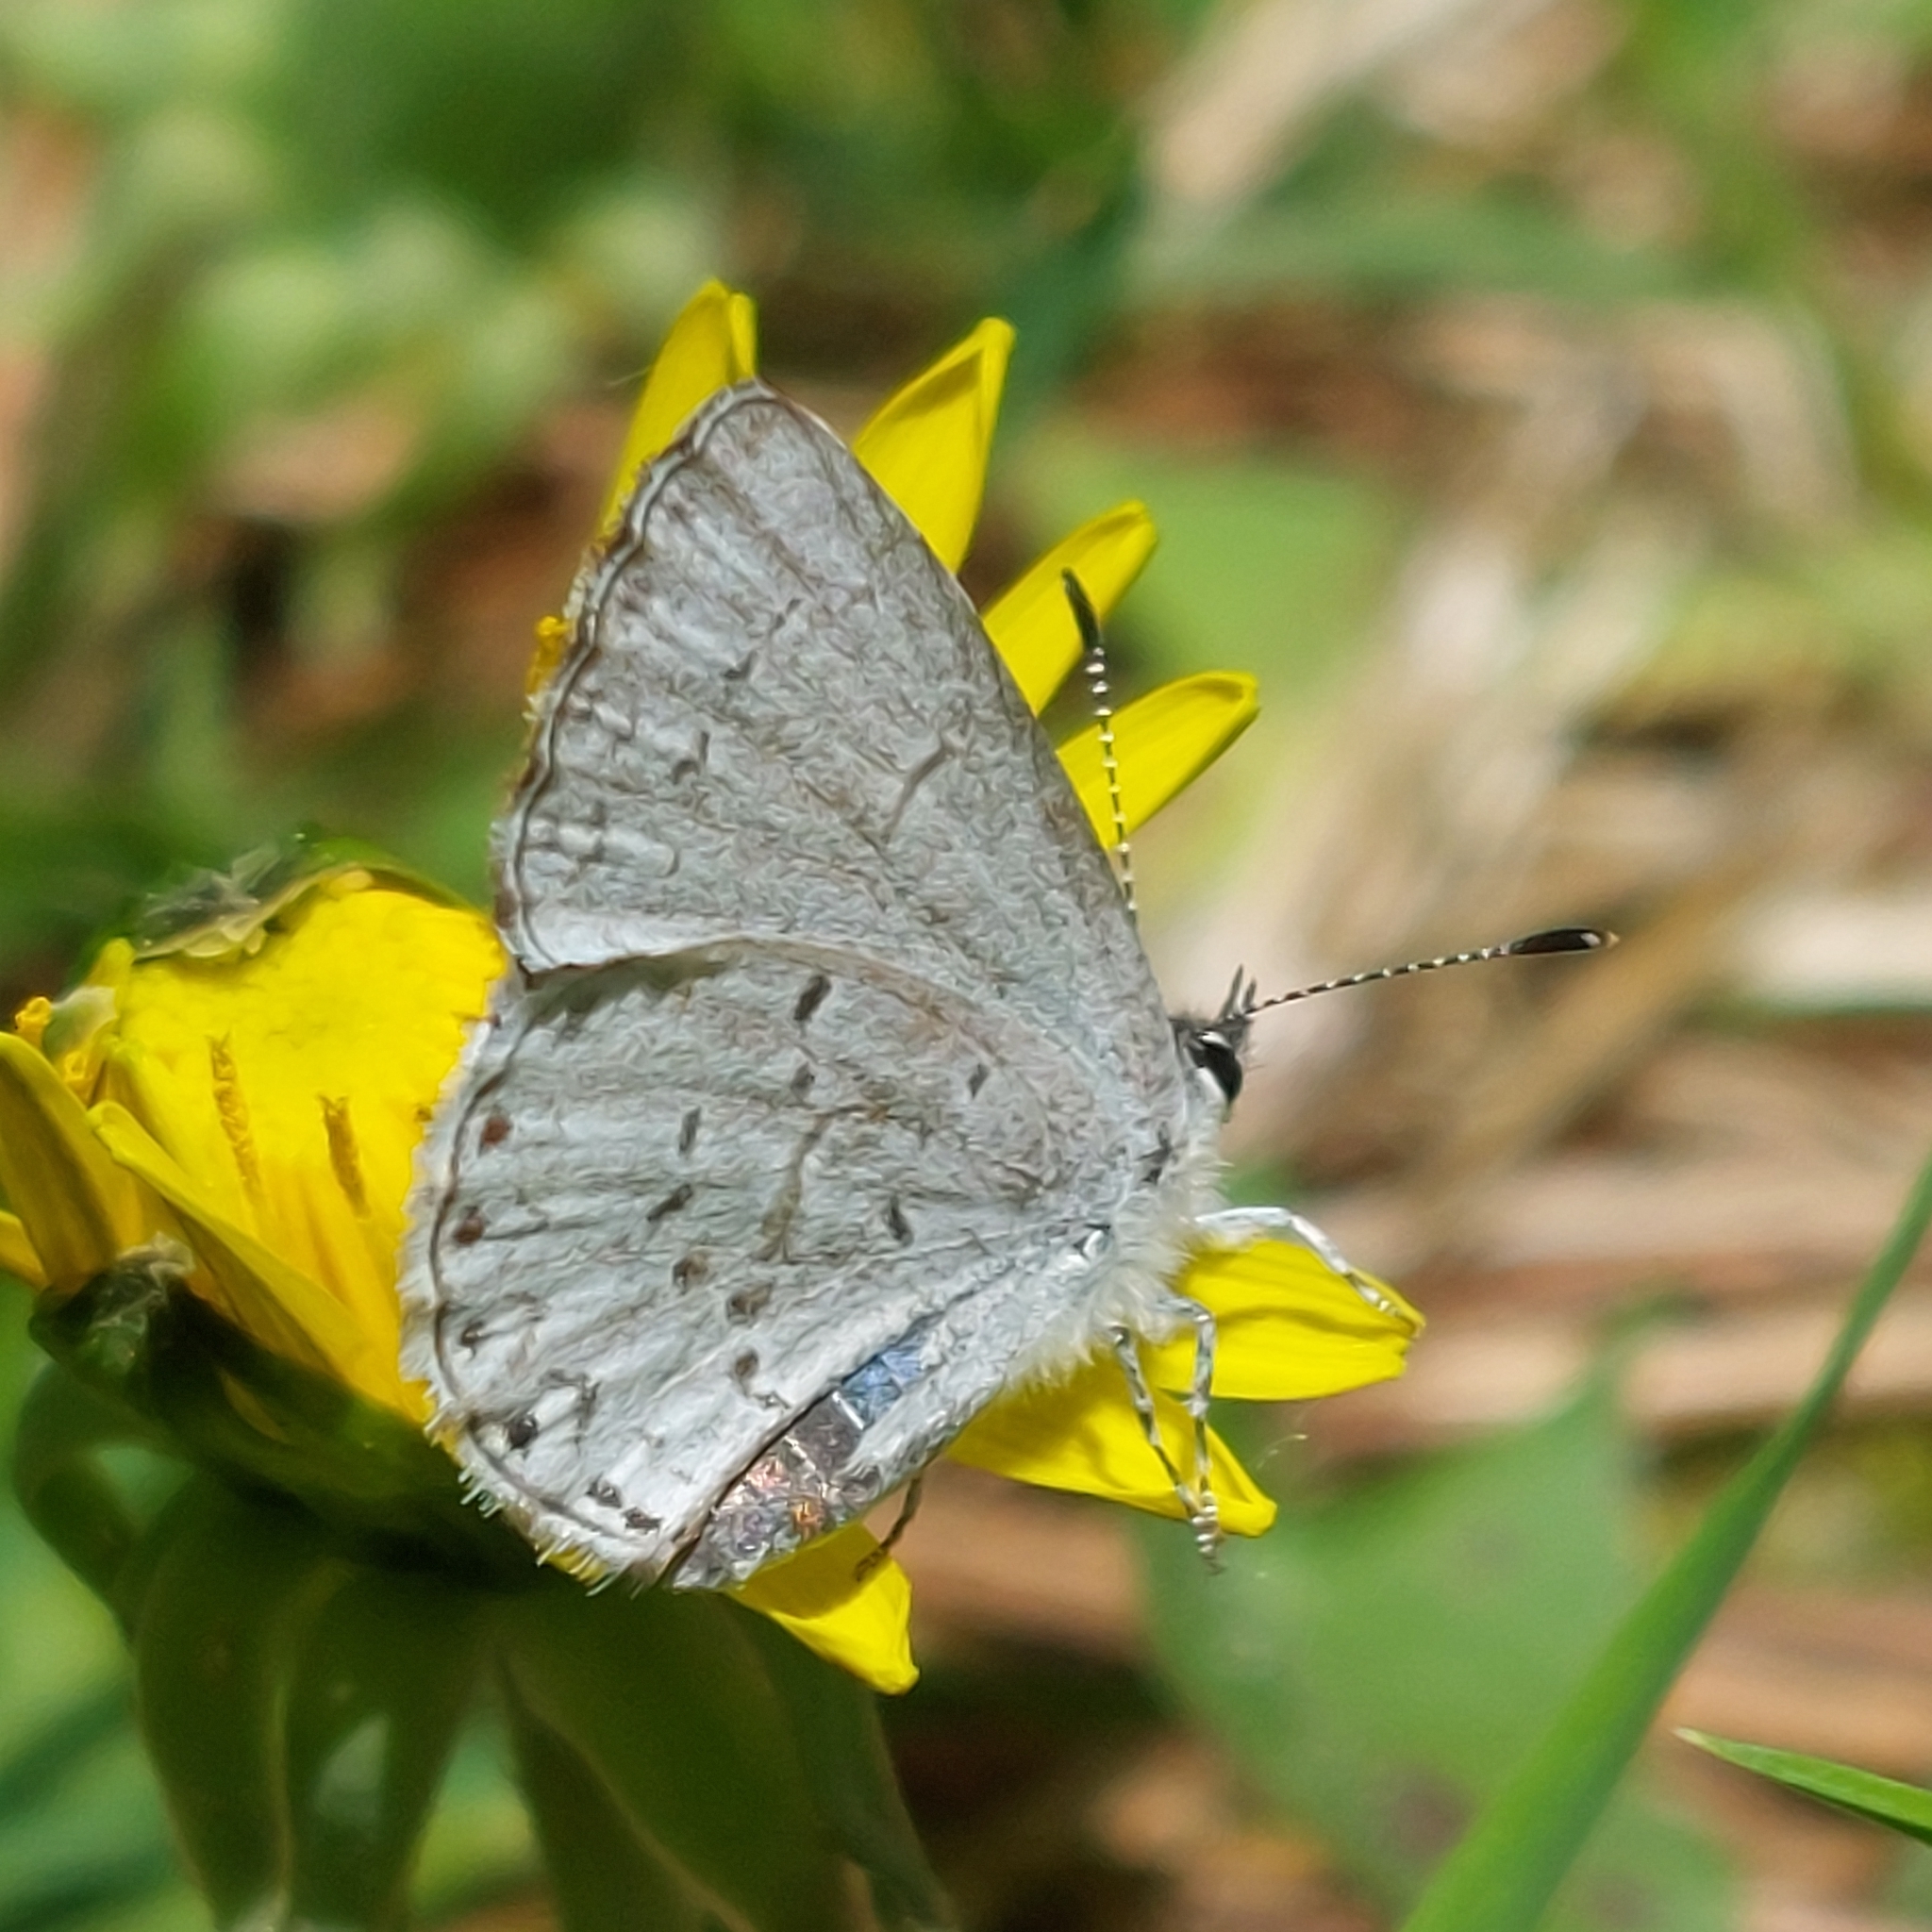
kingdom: Animalia
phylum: Arthropoda
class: Insecta
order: Lepidoptera
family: Lycaenidae
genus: Celastrina
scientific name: Celastrina lucia
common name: Lucia azure
